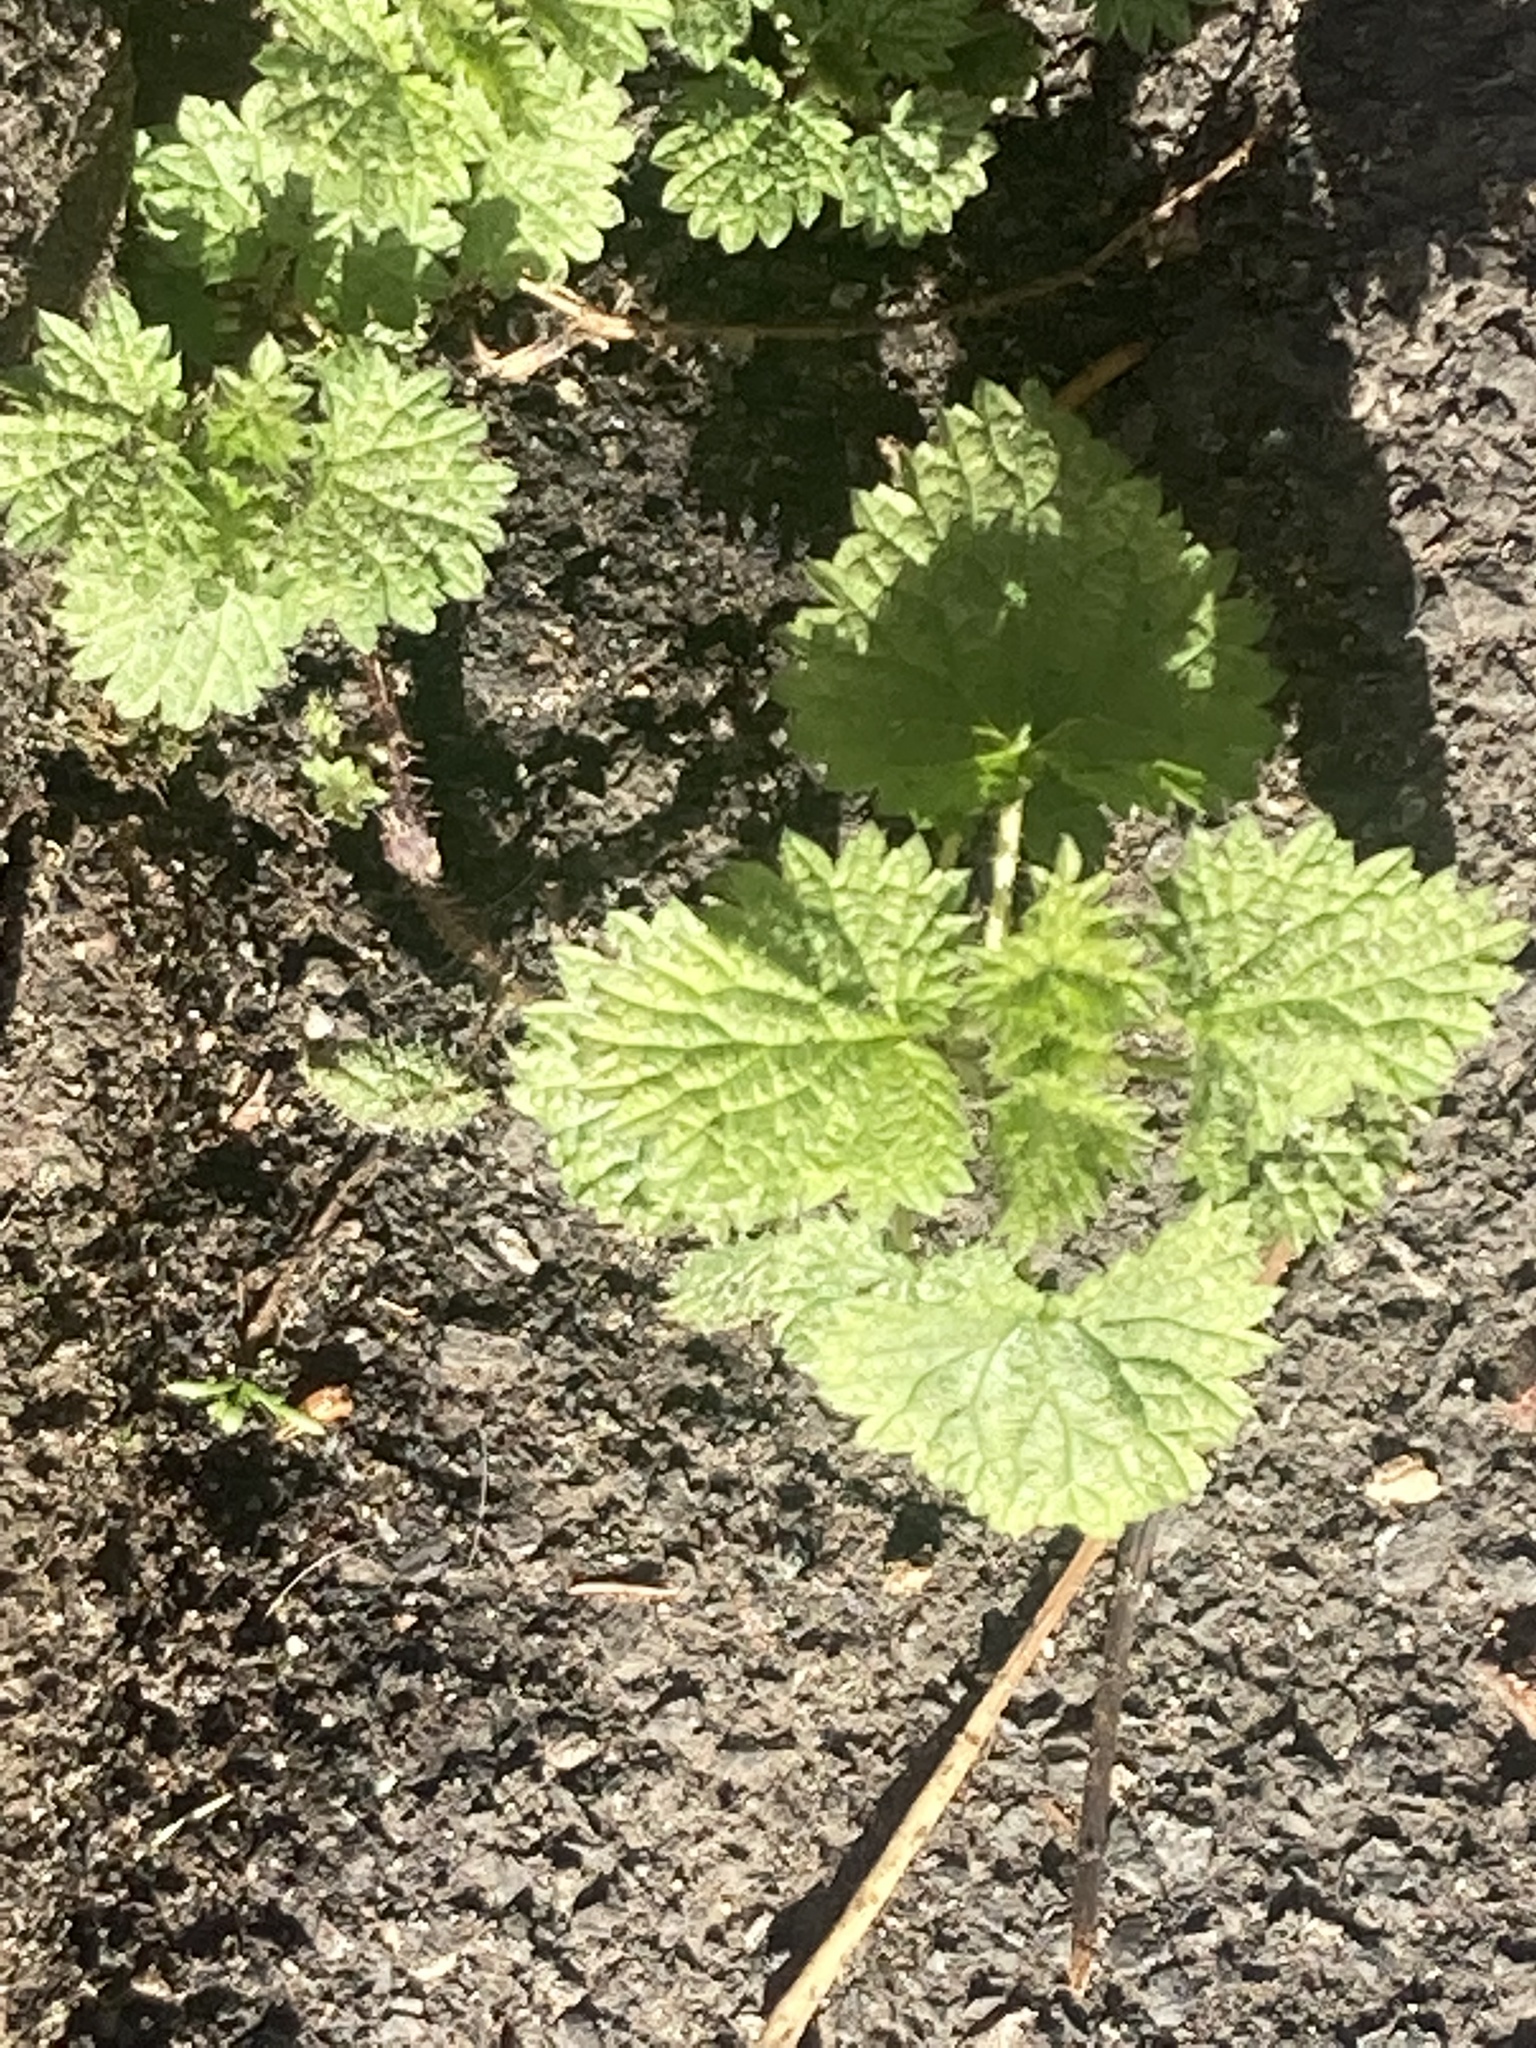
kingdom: Plantae
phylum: Tracheophyta
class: Magnoliopsida
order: Rosales
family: Urticaceae
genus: Urtica
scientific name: Urtica dioica
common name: Common nettle
